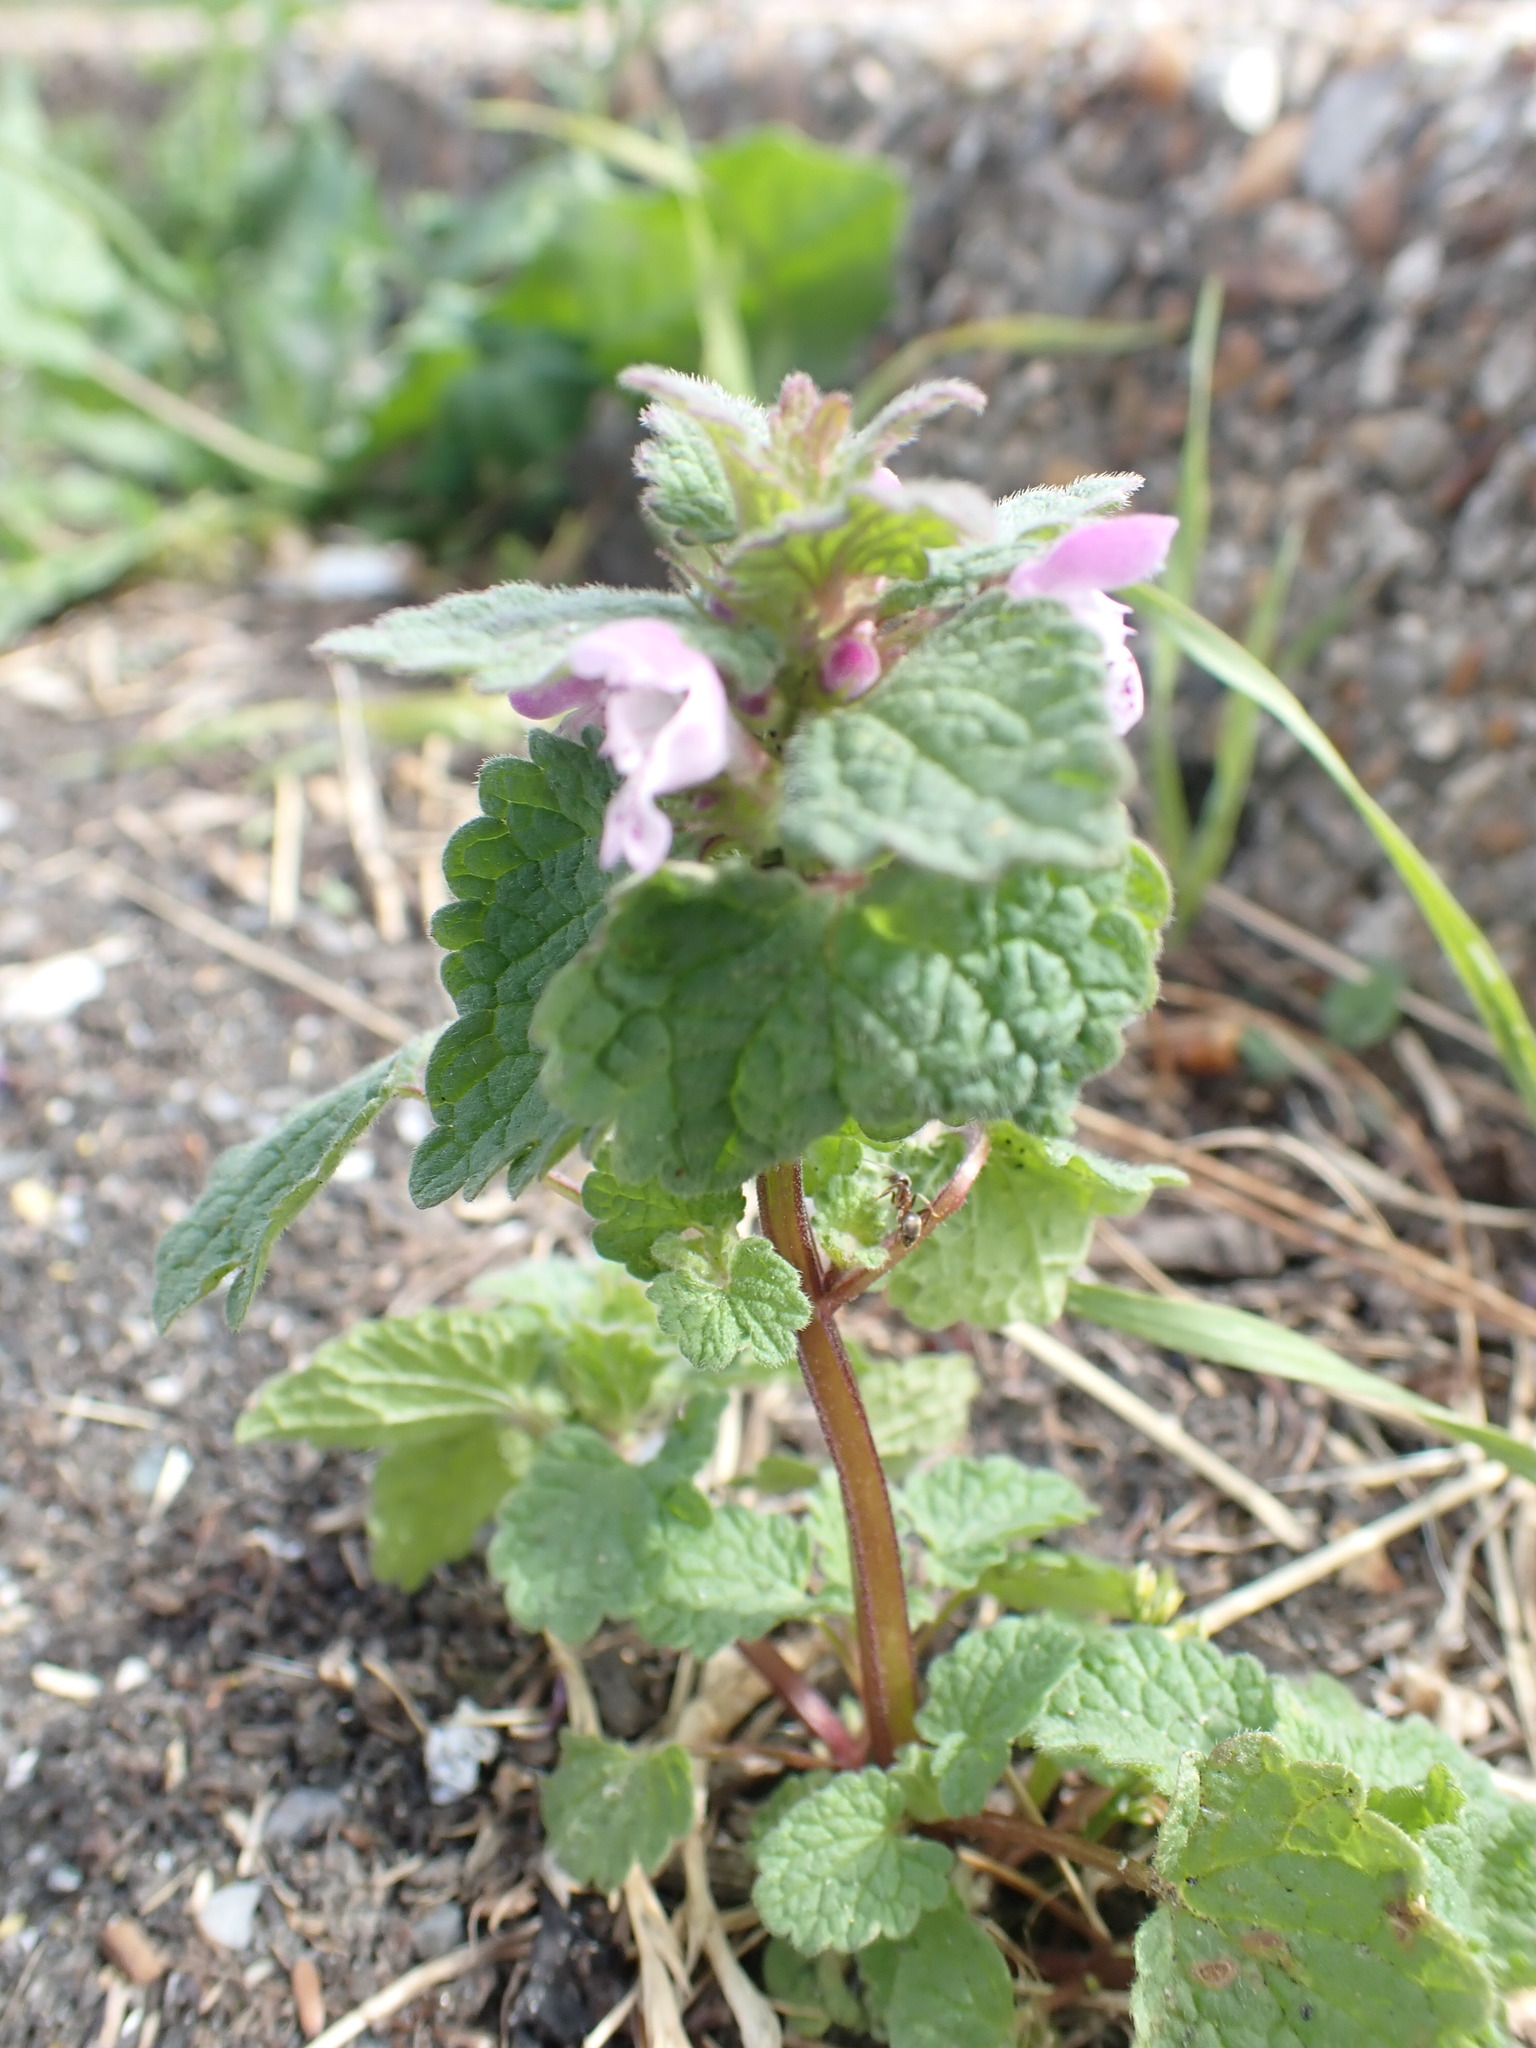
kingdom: Plantae
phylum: Tracheophyta
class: Magnoliopsida
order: Lamiales
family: Lamiaceae
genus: Lamium
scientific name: Lamium purpureum
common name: Red dead-nettle
